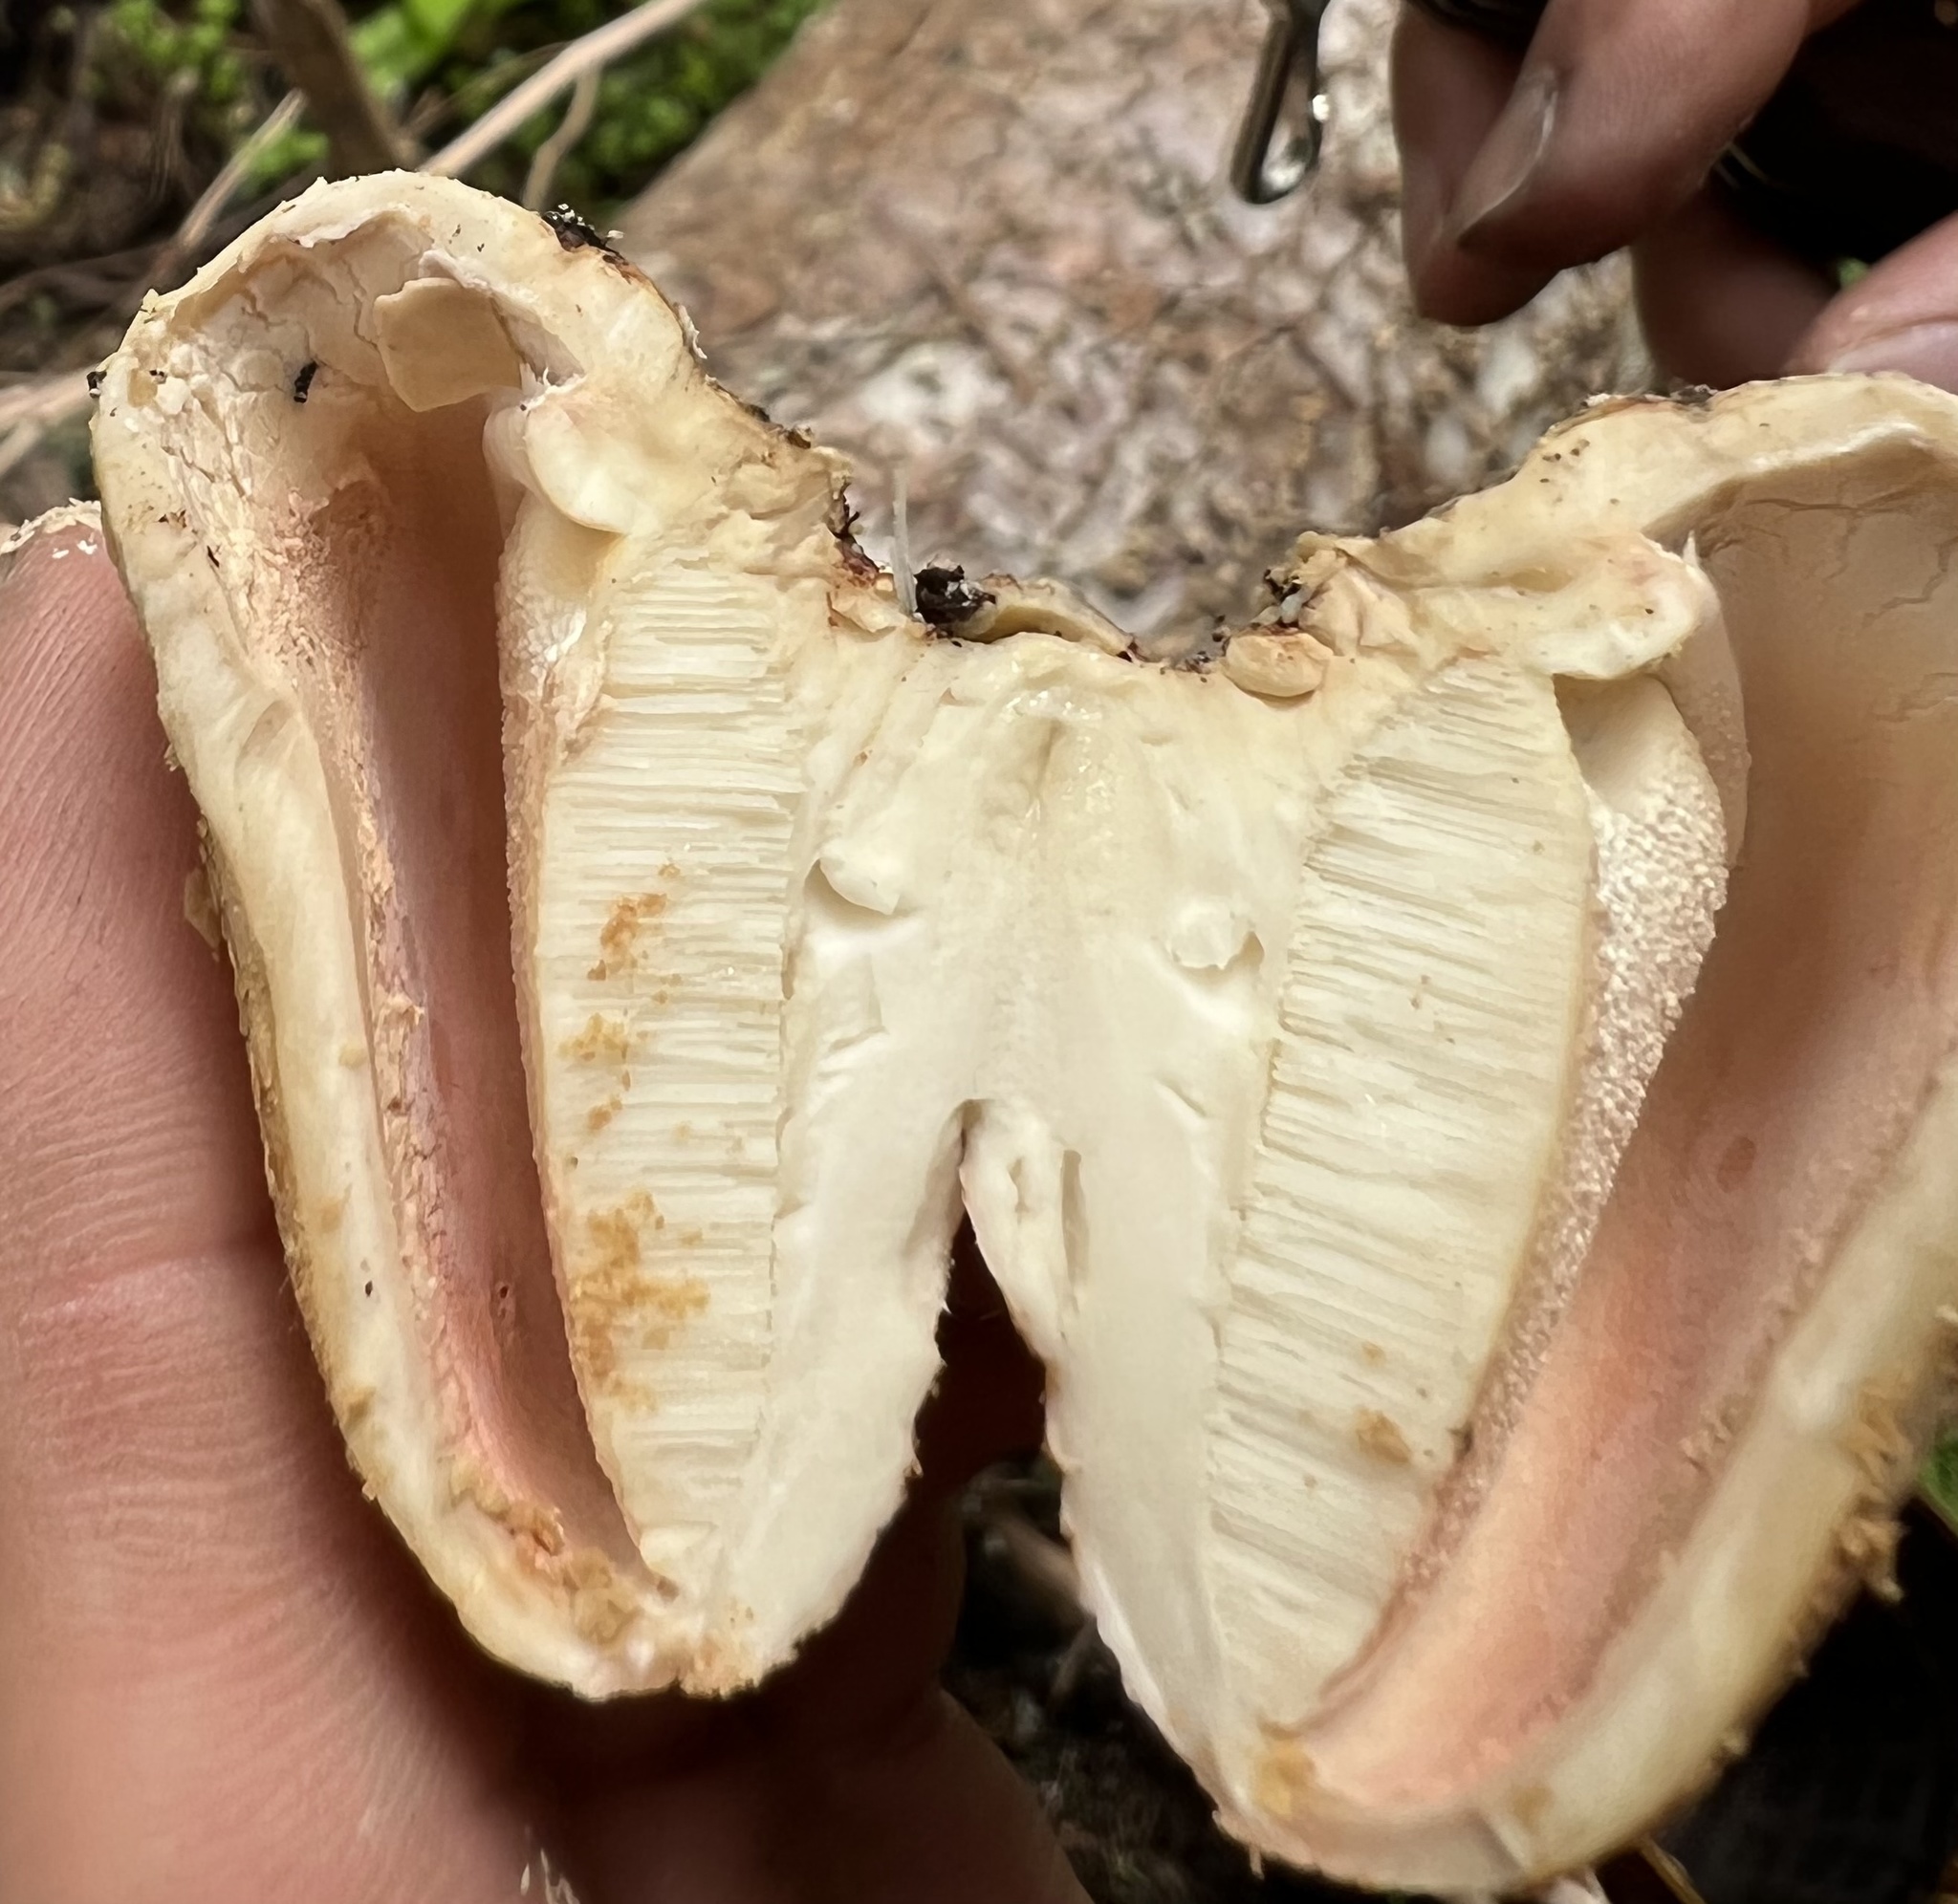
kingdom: Fungi
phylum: Basidiomycota
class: Agaricomycetes
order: Polyporales
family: Polyporaceae
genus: Cryptoporus
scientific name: Cryptoporus volvatus
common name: Veiled polypore
